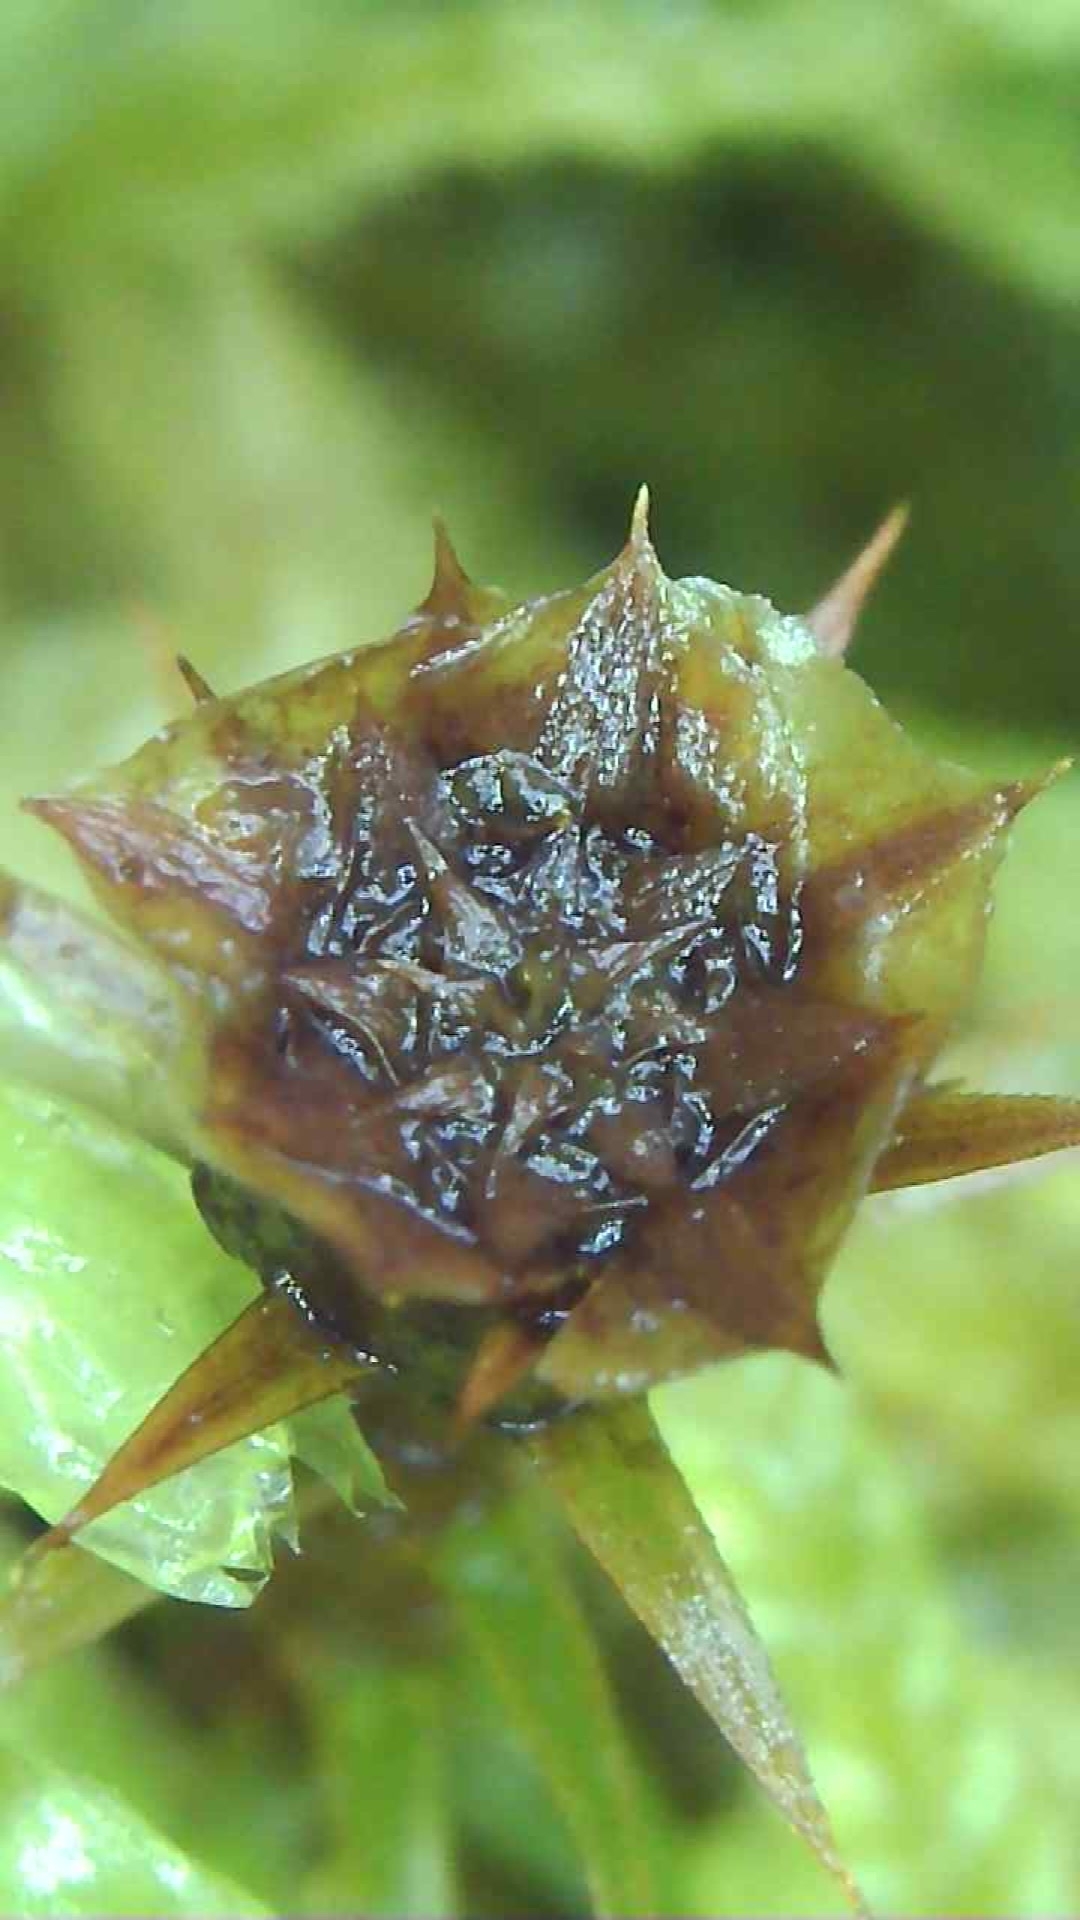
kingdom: Plantae
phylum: Bryophyta
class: Polytrichopsida
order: Polytrichales
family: Polytrichaceae
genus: Polytrichum
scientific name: Polytrichum formosum
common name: Bank haircap moss
